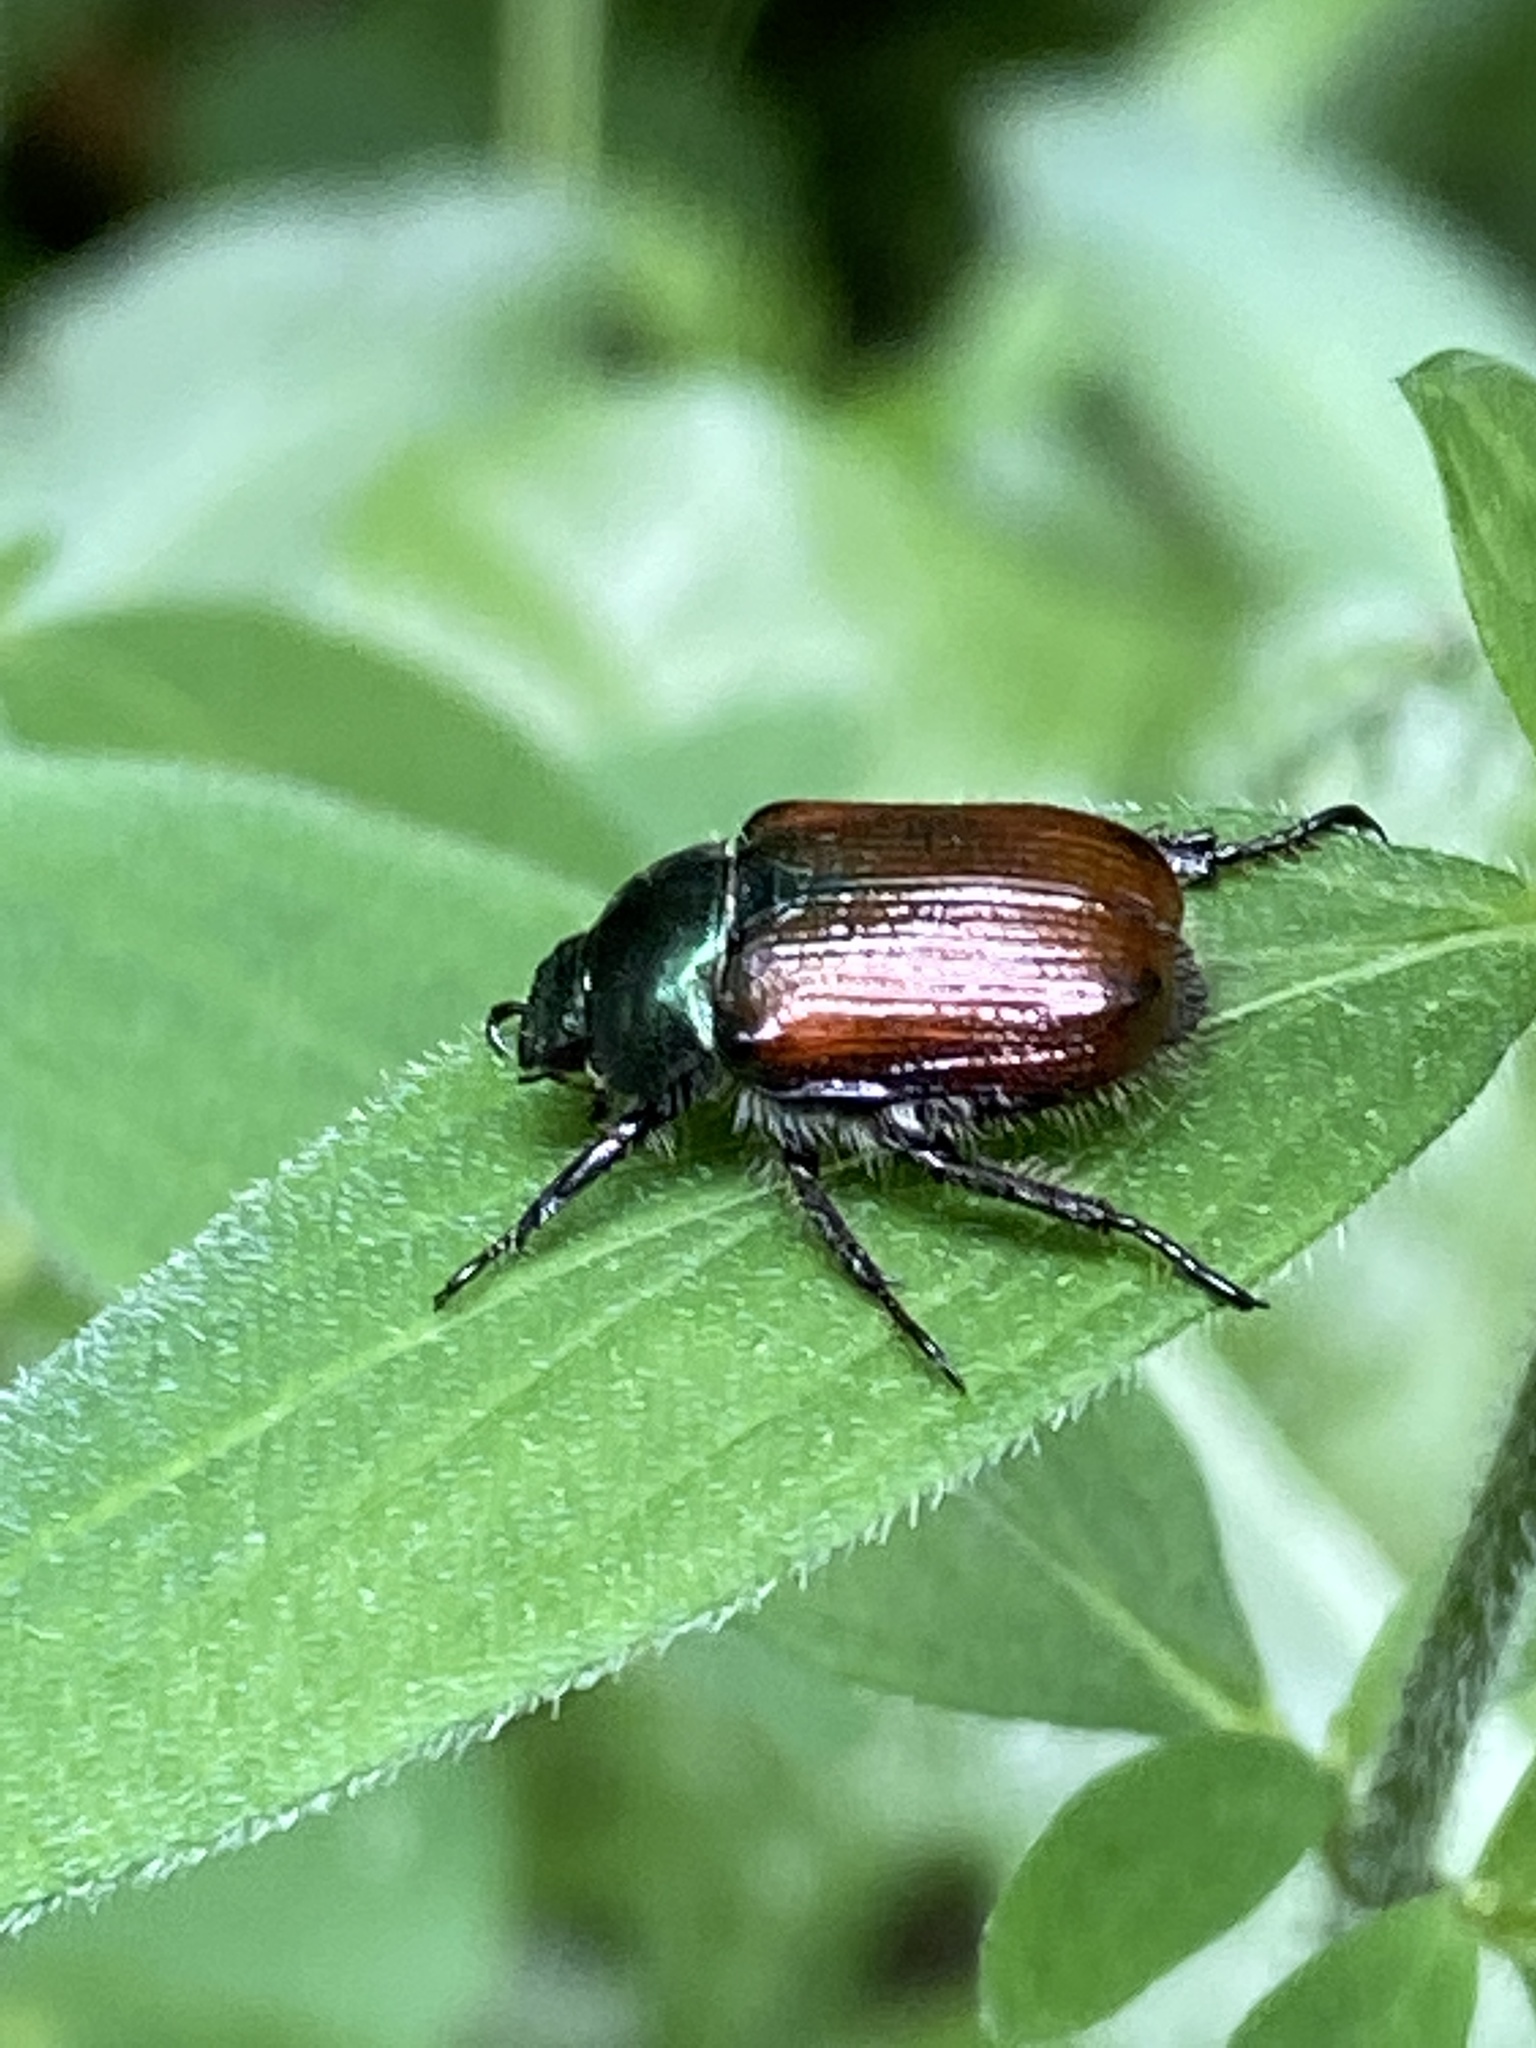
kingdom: Animalia
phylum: Arthropoda
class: Insecta
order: Coleoptera
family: Scarabaeidae
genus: Phyllopertha
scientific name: Phyllopertha horticola
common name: Garden chafer
